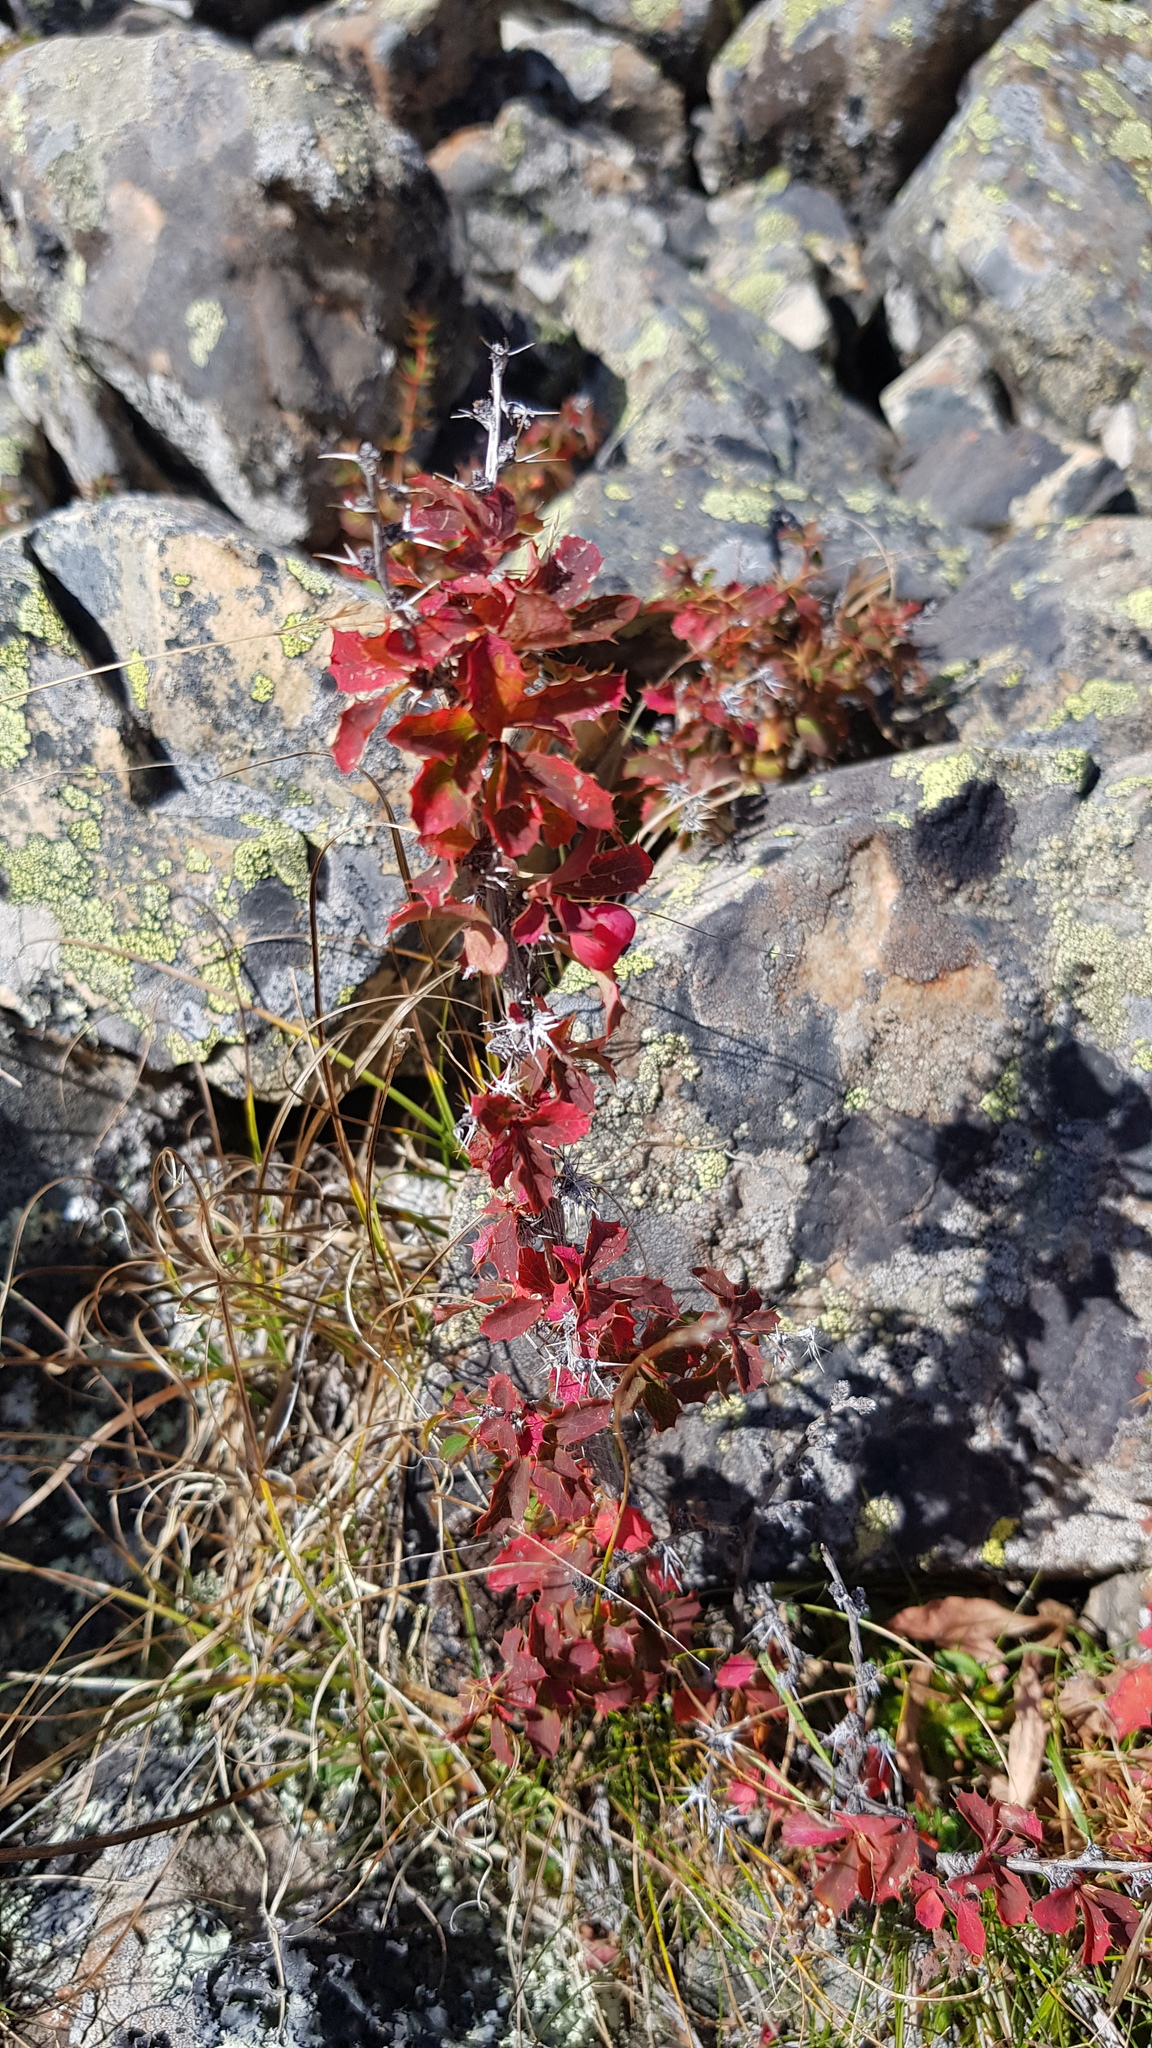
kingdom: Plantae
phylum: Tracheophyta
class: Magnoliopsida
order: Ranunculales
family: Berberidaceae
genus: Berberis
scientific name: Berberis sibirica
